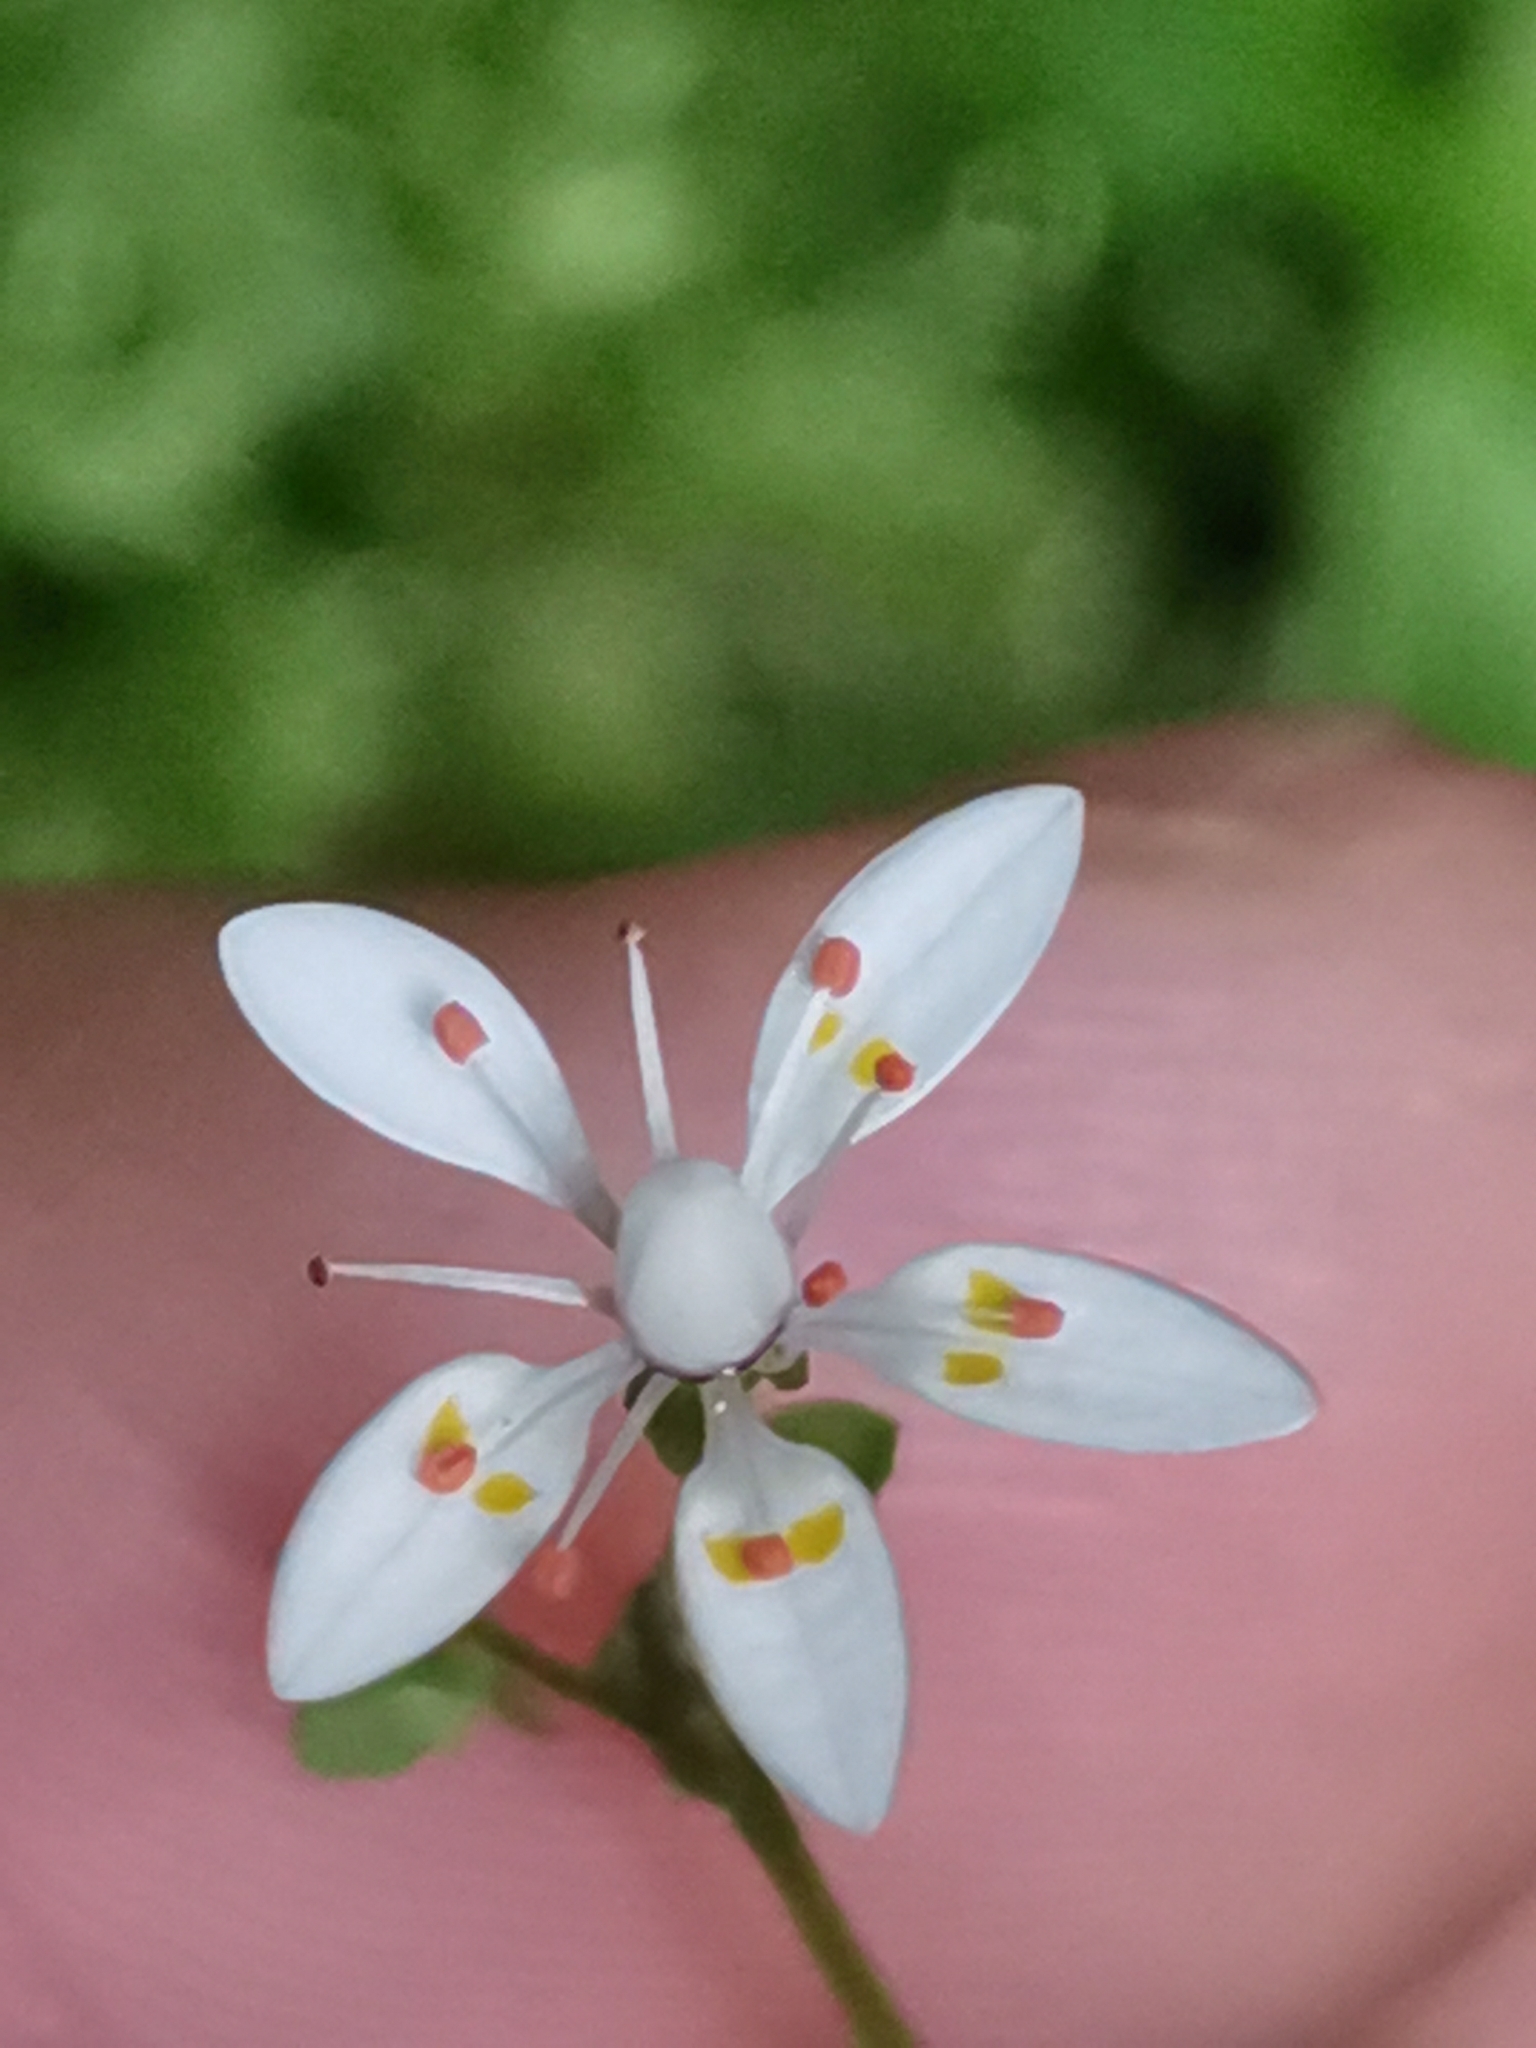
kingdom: Plantae
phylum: Tracheophyta
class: Magnoliopsida
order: Saxifragales
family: Saxifragaceae
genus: Micranthes
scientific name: Micranthes stellaris
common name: Starry saxifrage
